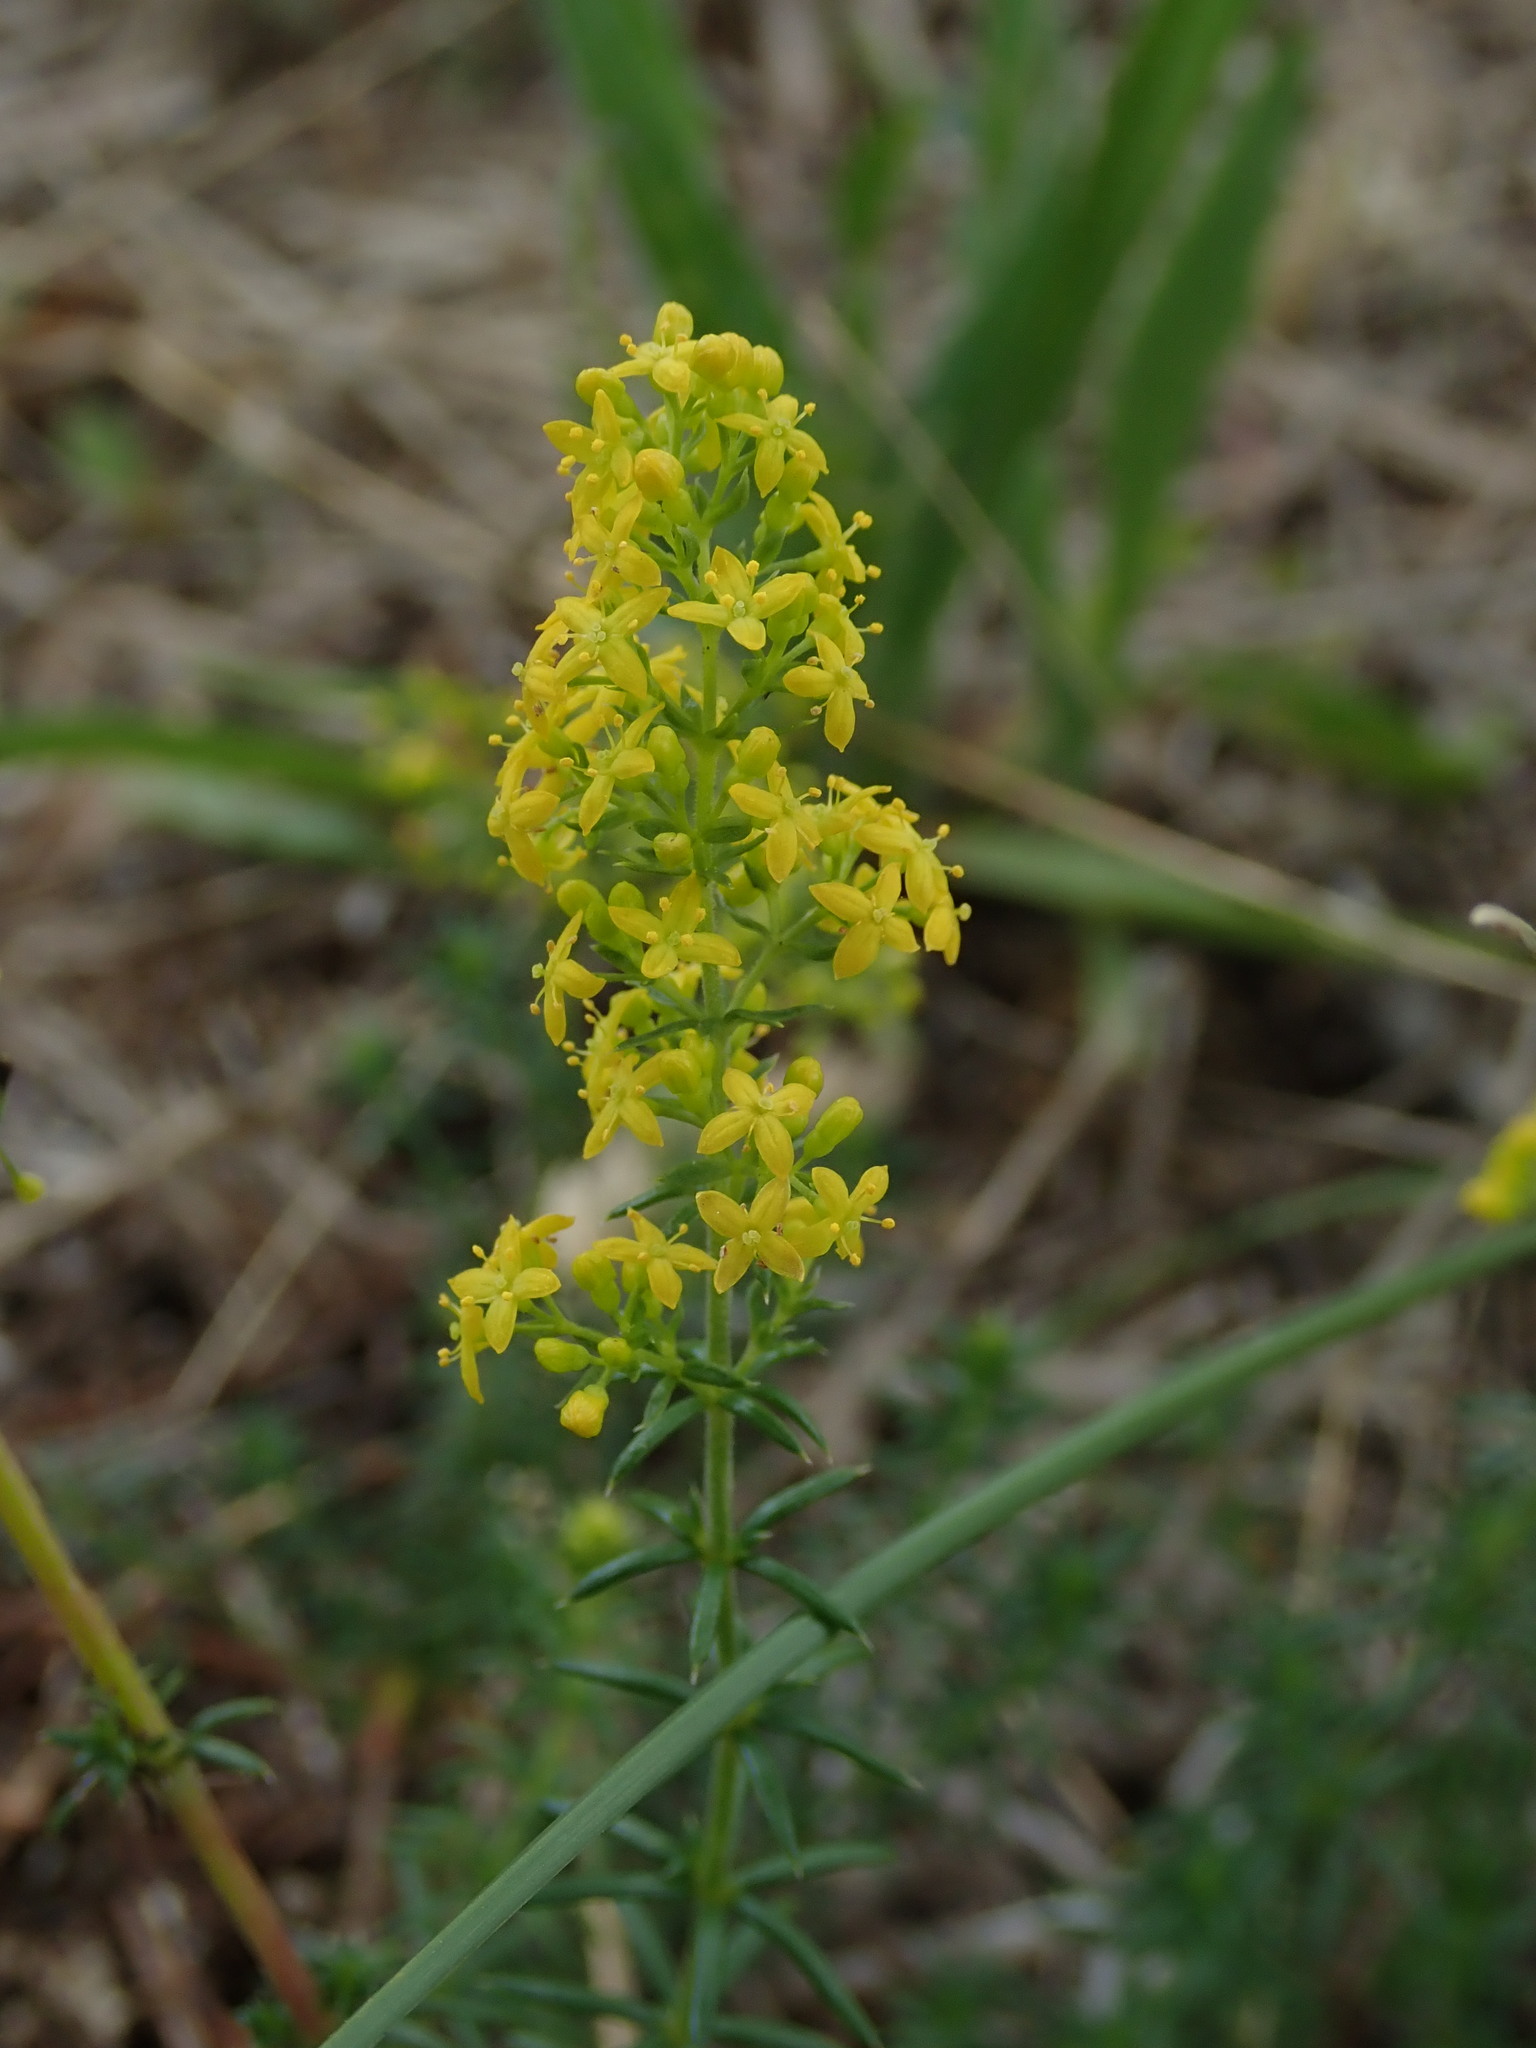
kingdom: Plantae
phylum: Tracheophyta
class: Magnoliopsida
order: Gentianales
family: Rubiaceae
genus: Galium
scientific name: Galium verum
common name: Lady's bedstraw
